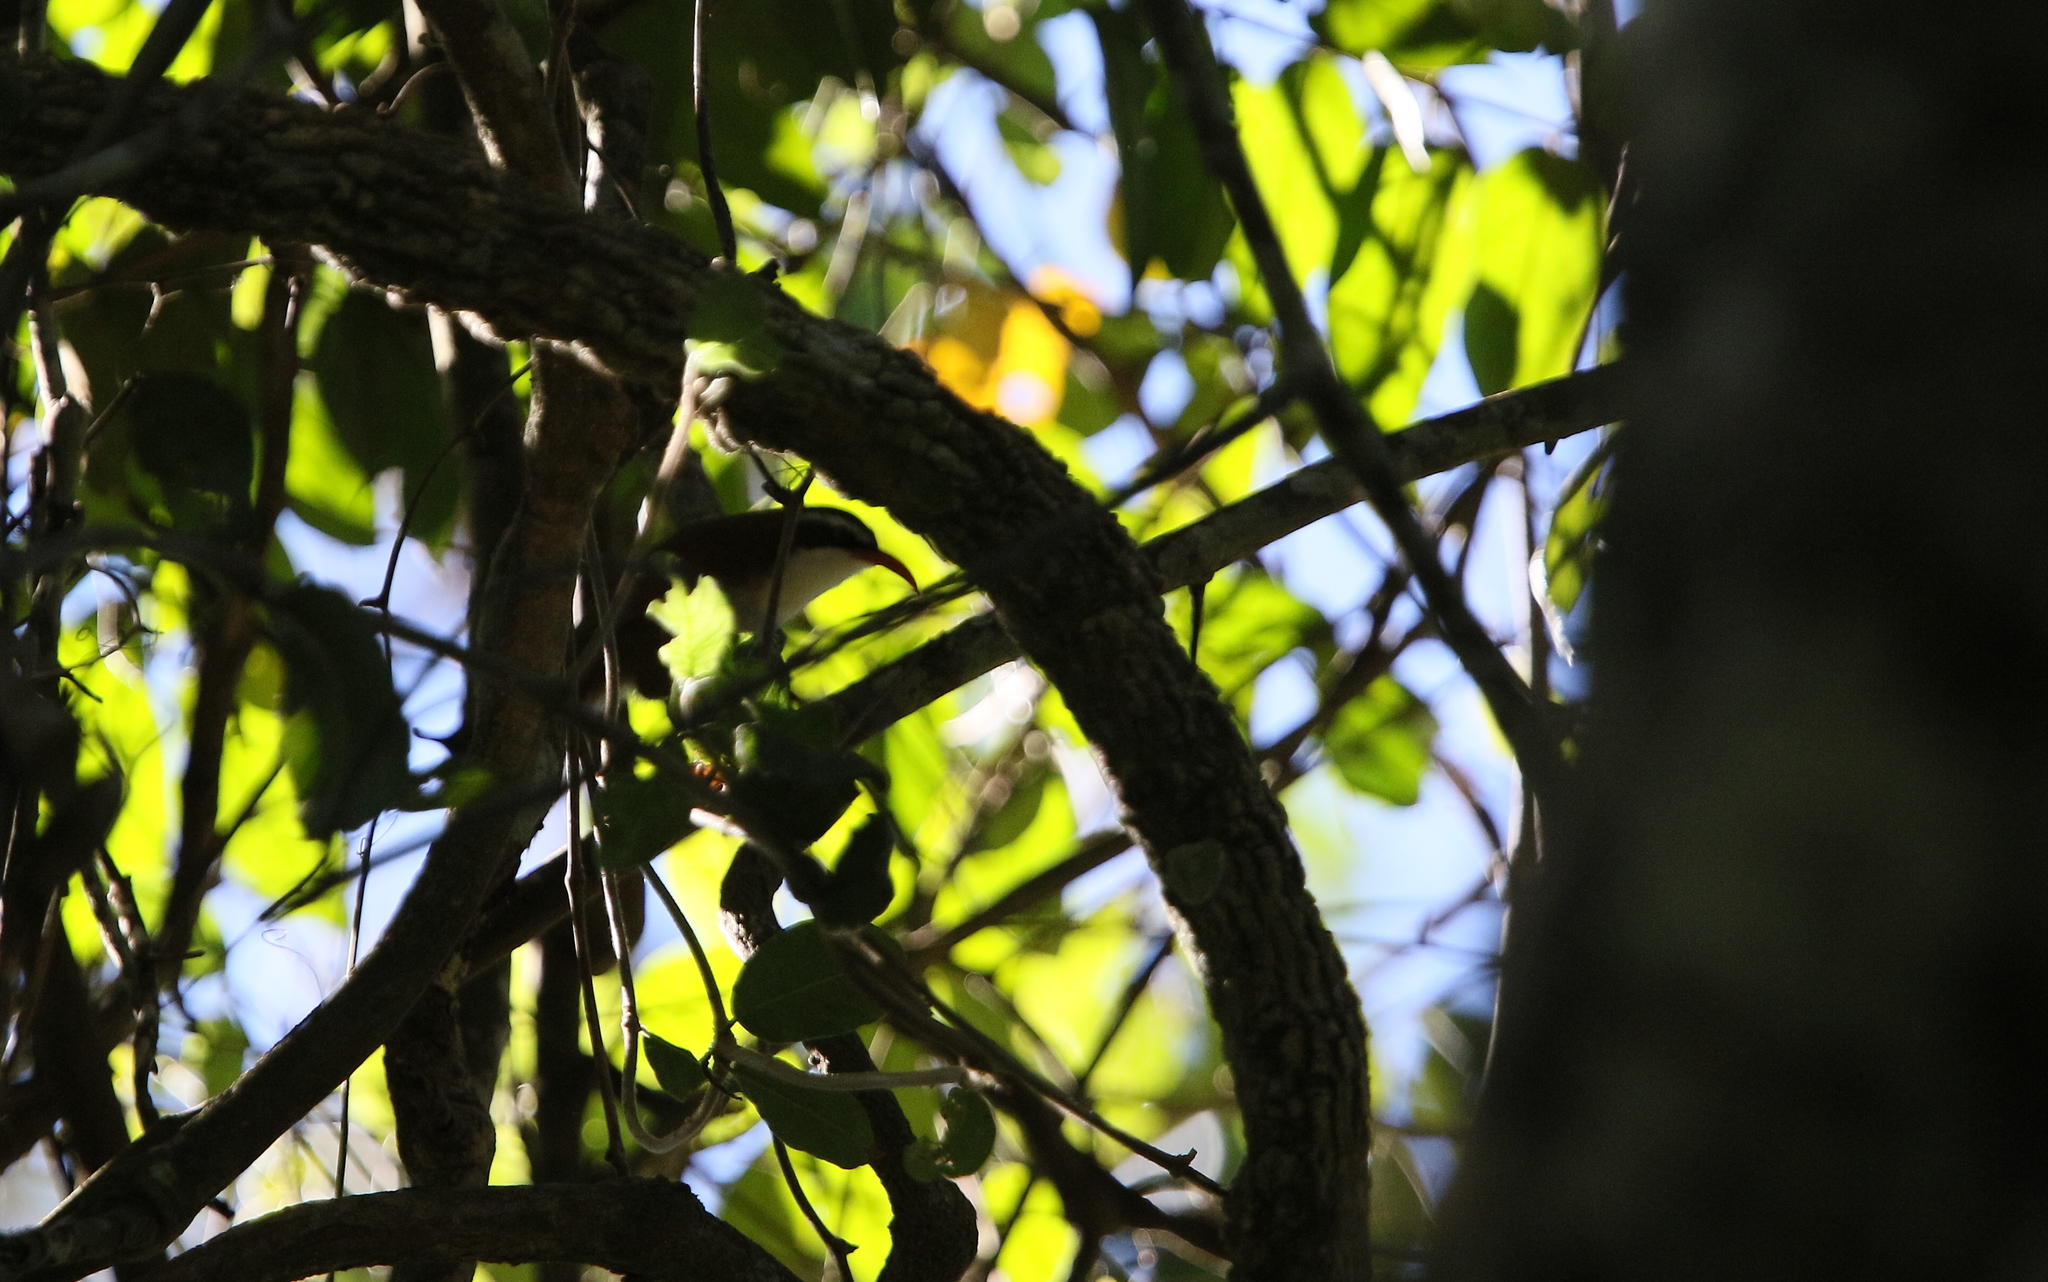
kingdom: Animalia
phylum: Chordata
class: Aves
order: Passeriformes
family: Timaliidae
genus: Pomatorhinus
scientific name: Pomatorhinus ochraceiceps
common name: Red-billed scimitar babbler
